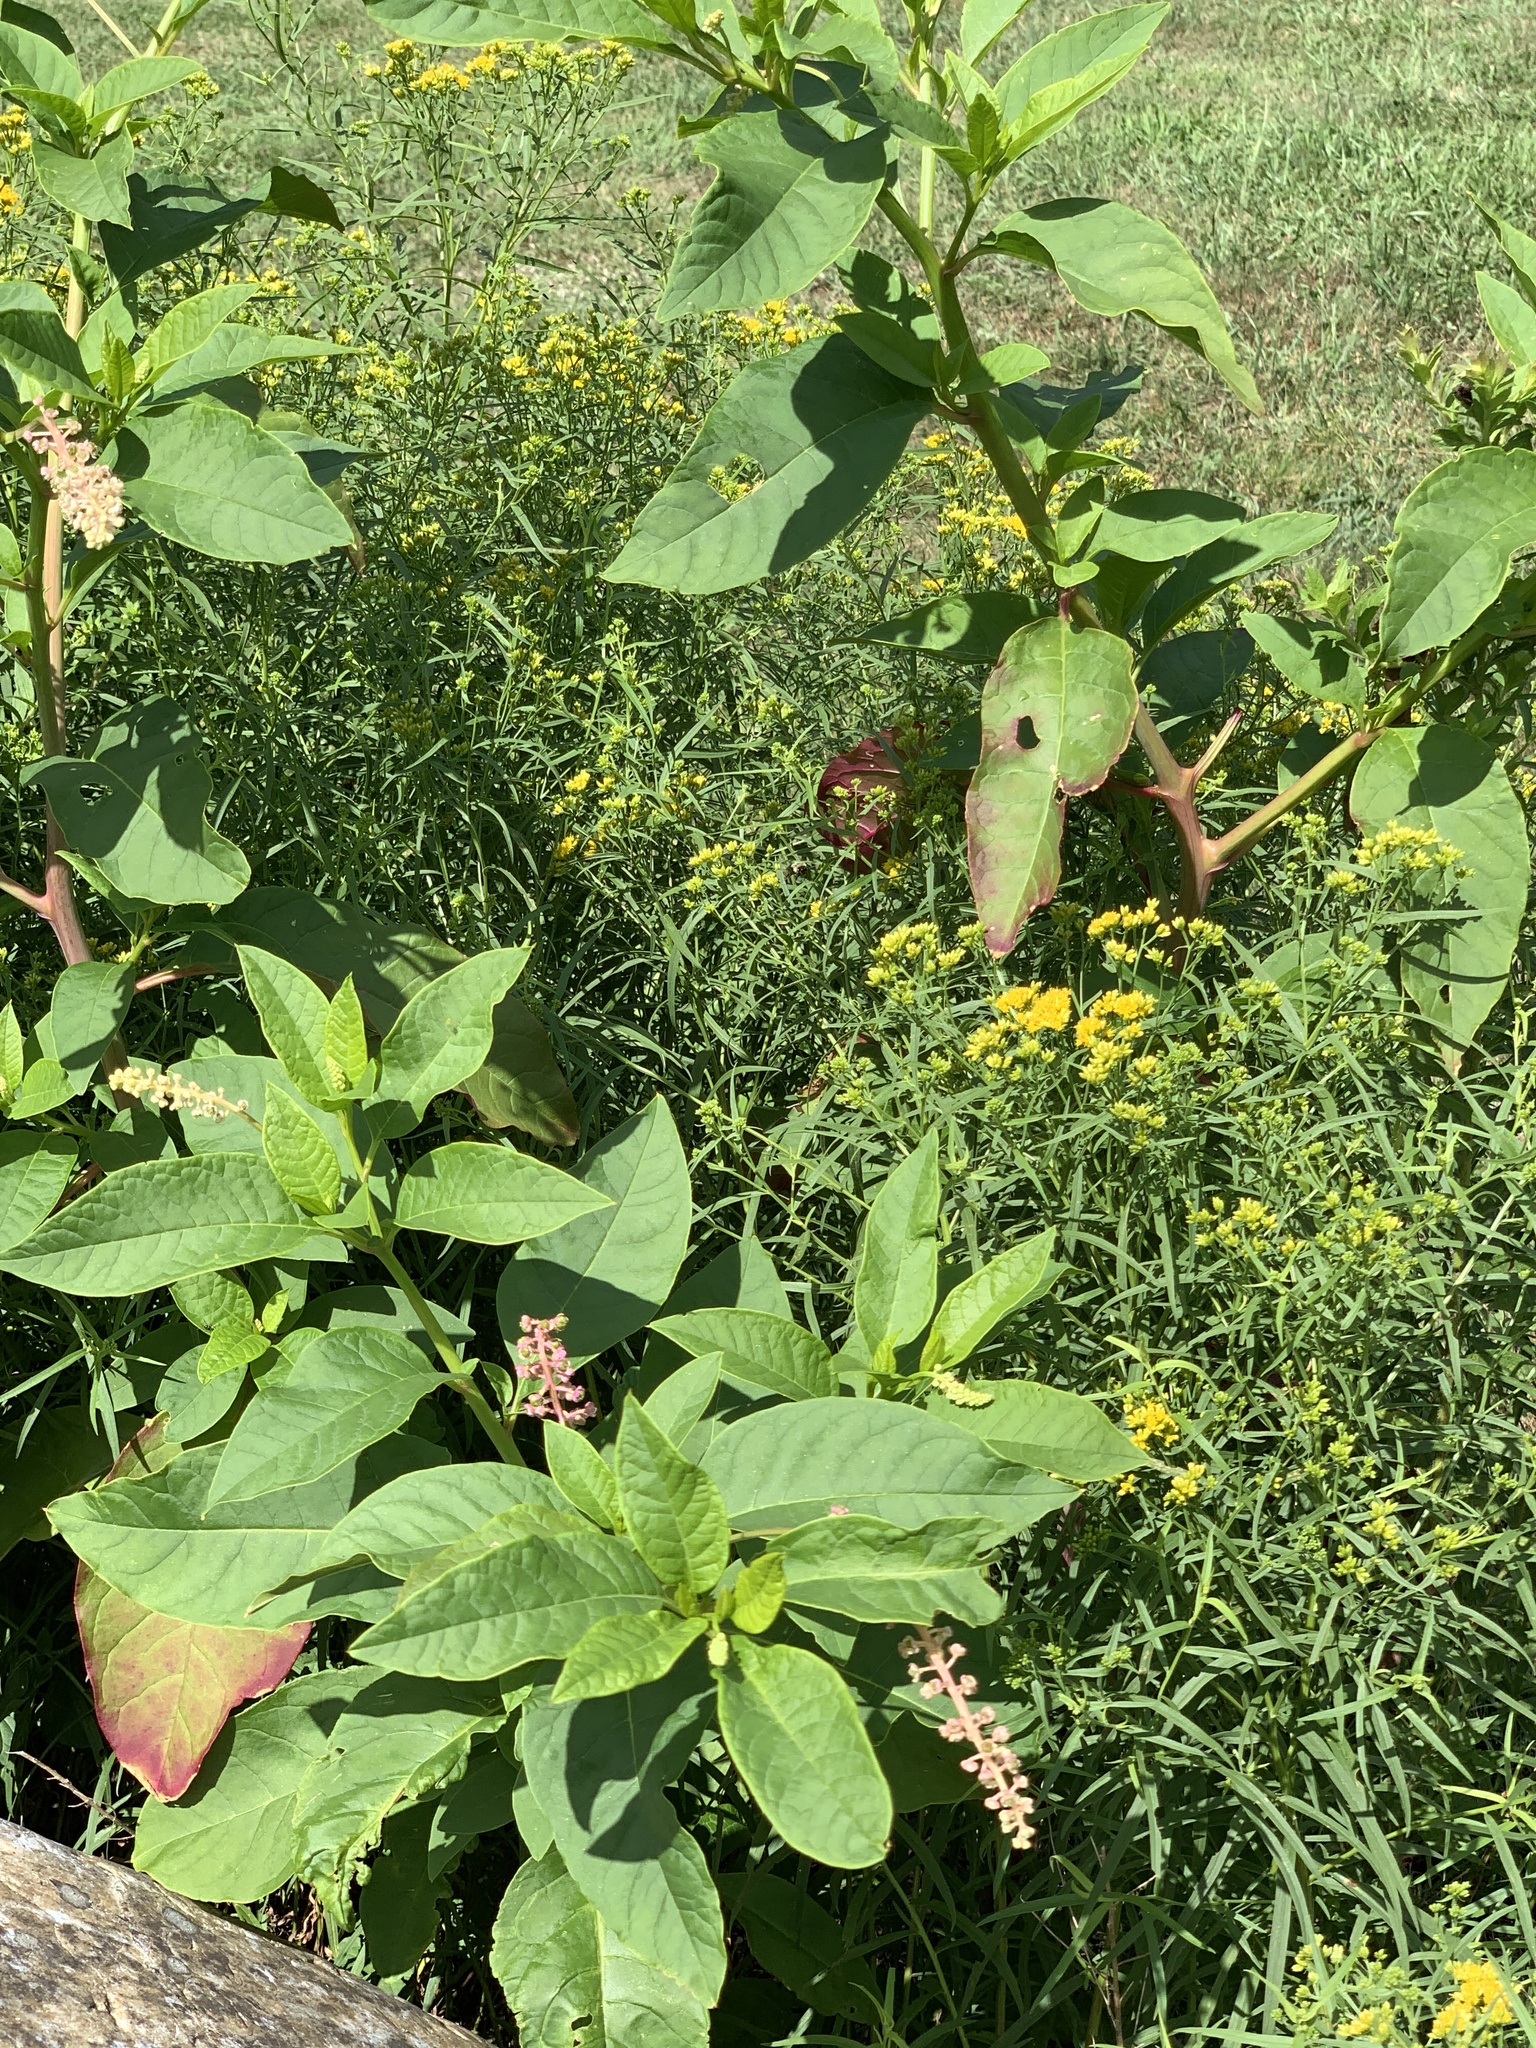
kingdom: Plantae
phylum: Tracheophyta
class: Magnoliopsida
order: Caryophyllales
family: Phytolaccaceae
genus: Phytolacca
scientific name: Phytolacca americana
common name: American pokeweed
